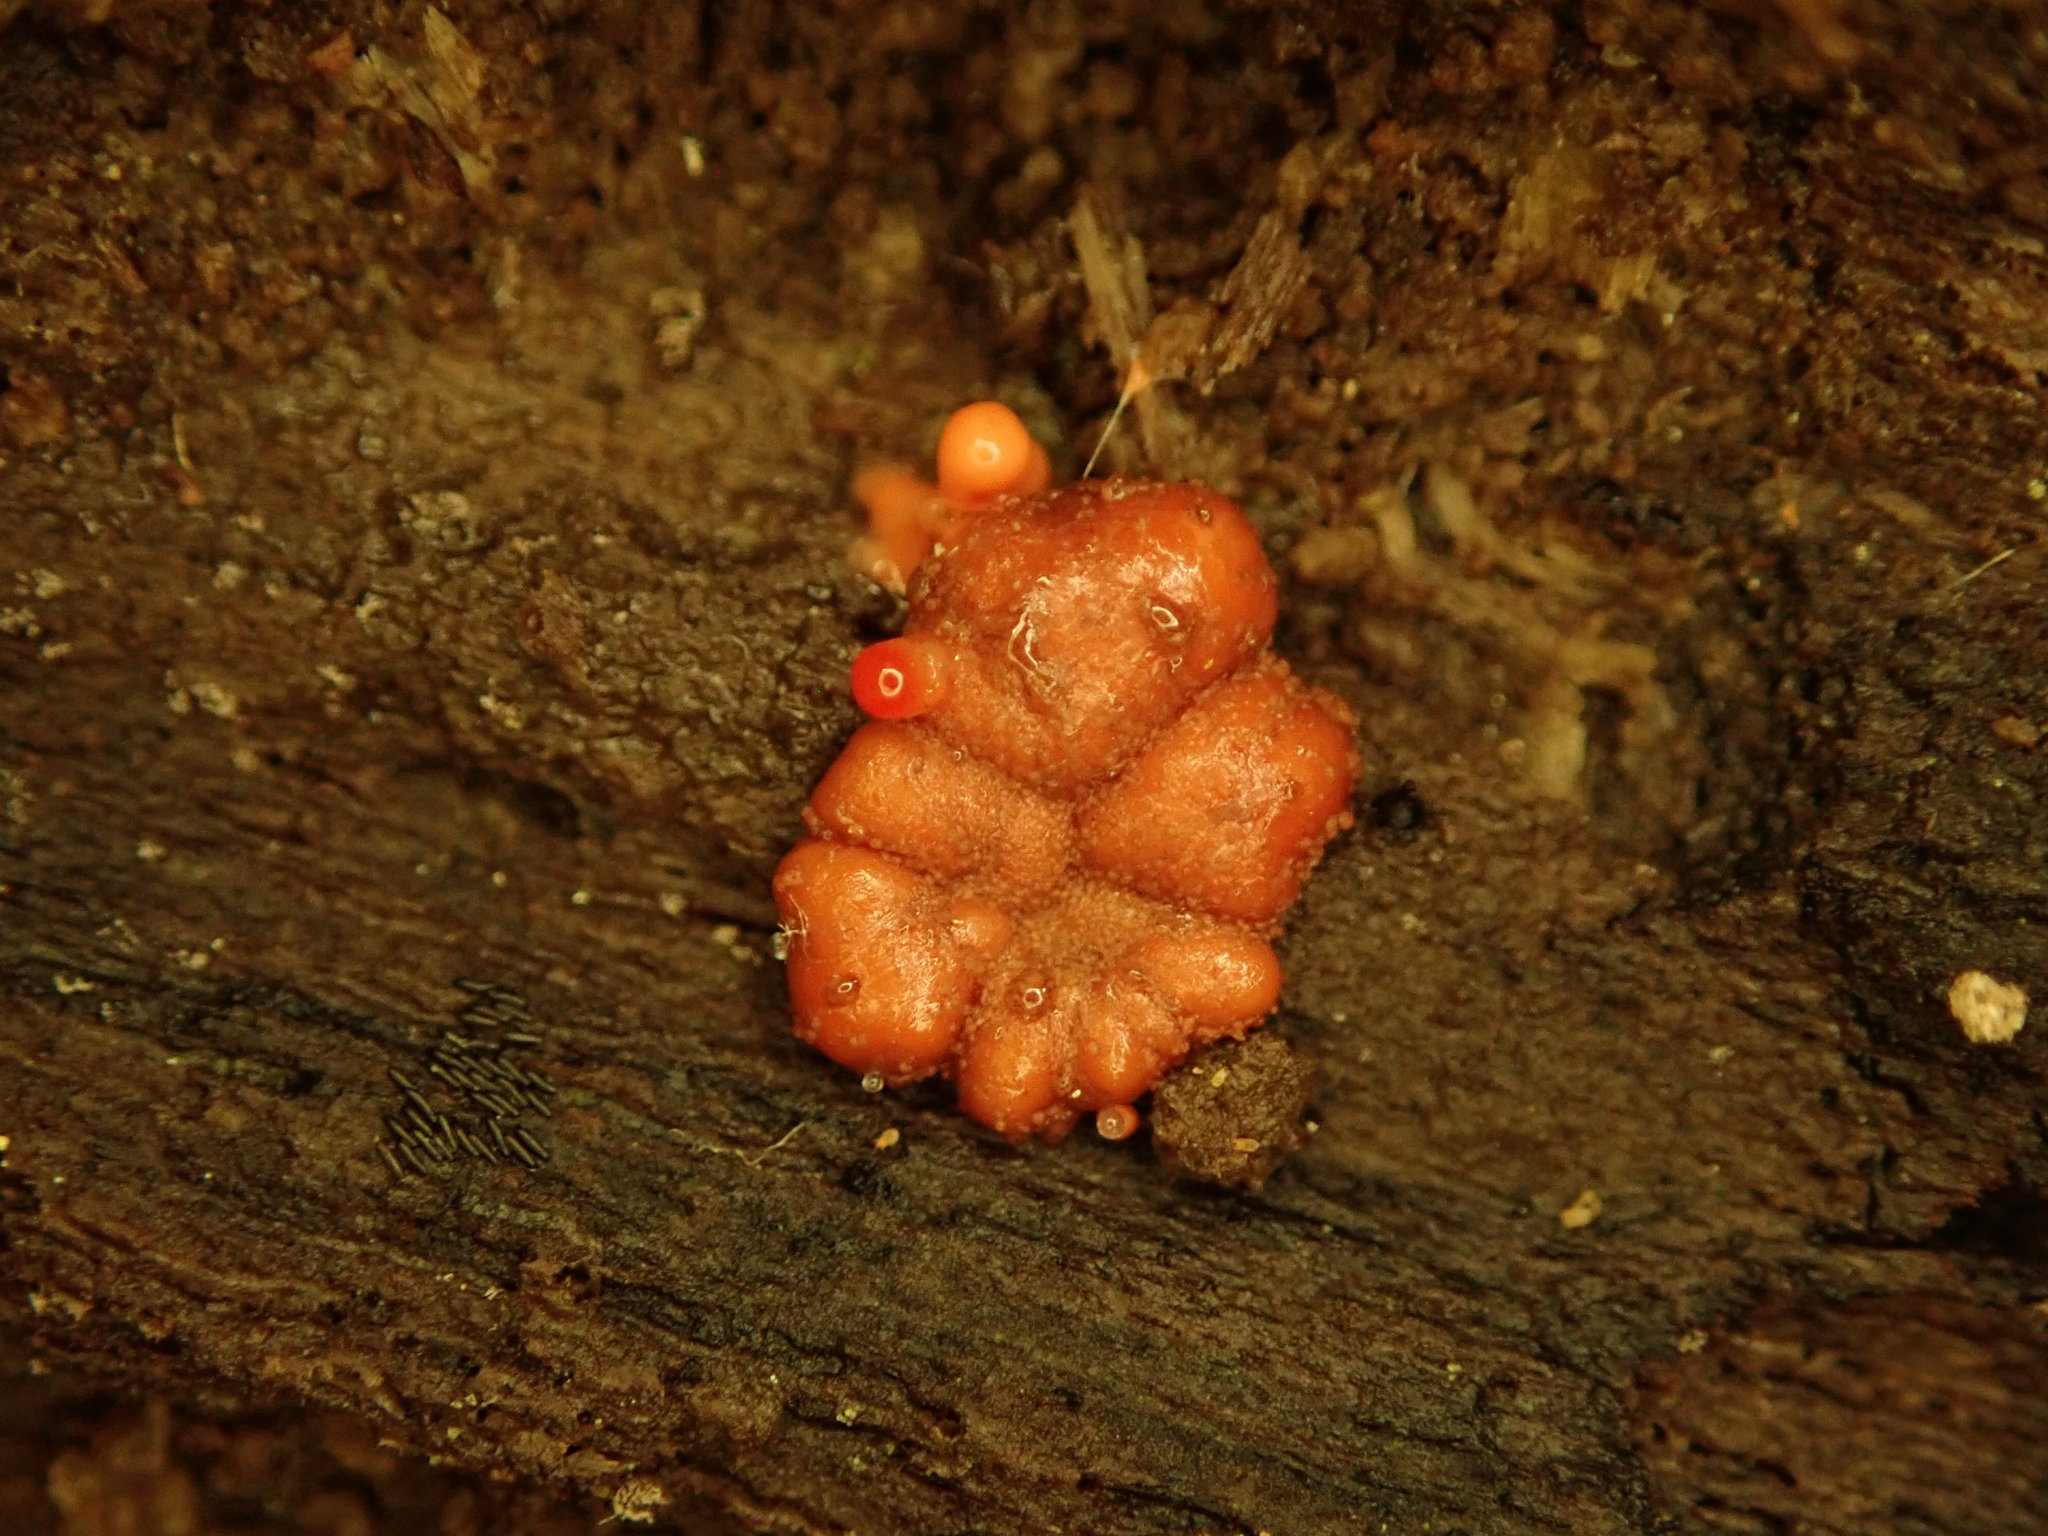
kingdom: Protozoa
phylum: Mycetozoa
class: Myxomycetes
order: Cribrariales
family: Tubiferaceae
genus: Lycogala
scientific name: Lycogala epidendrum
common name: Wolf's milk
